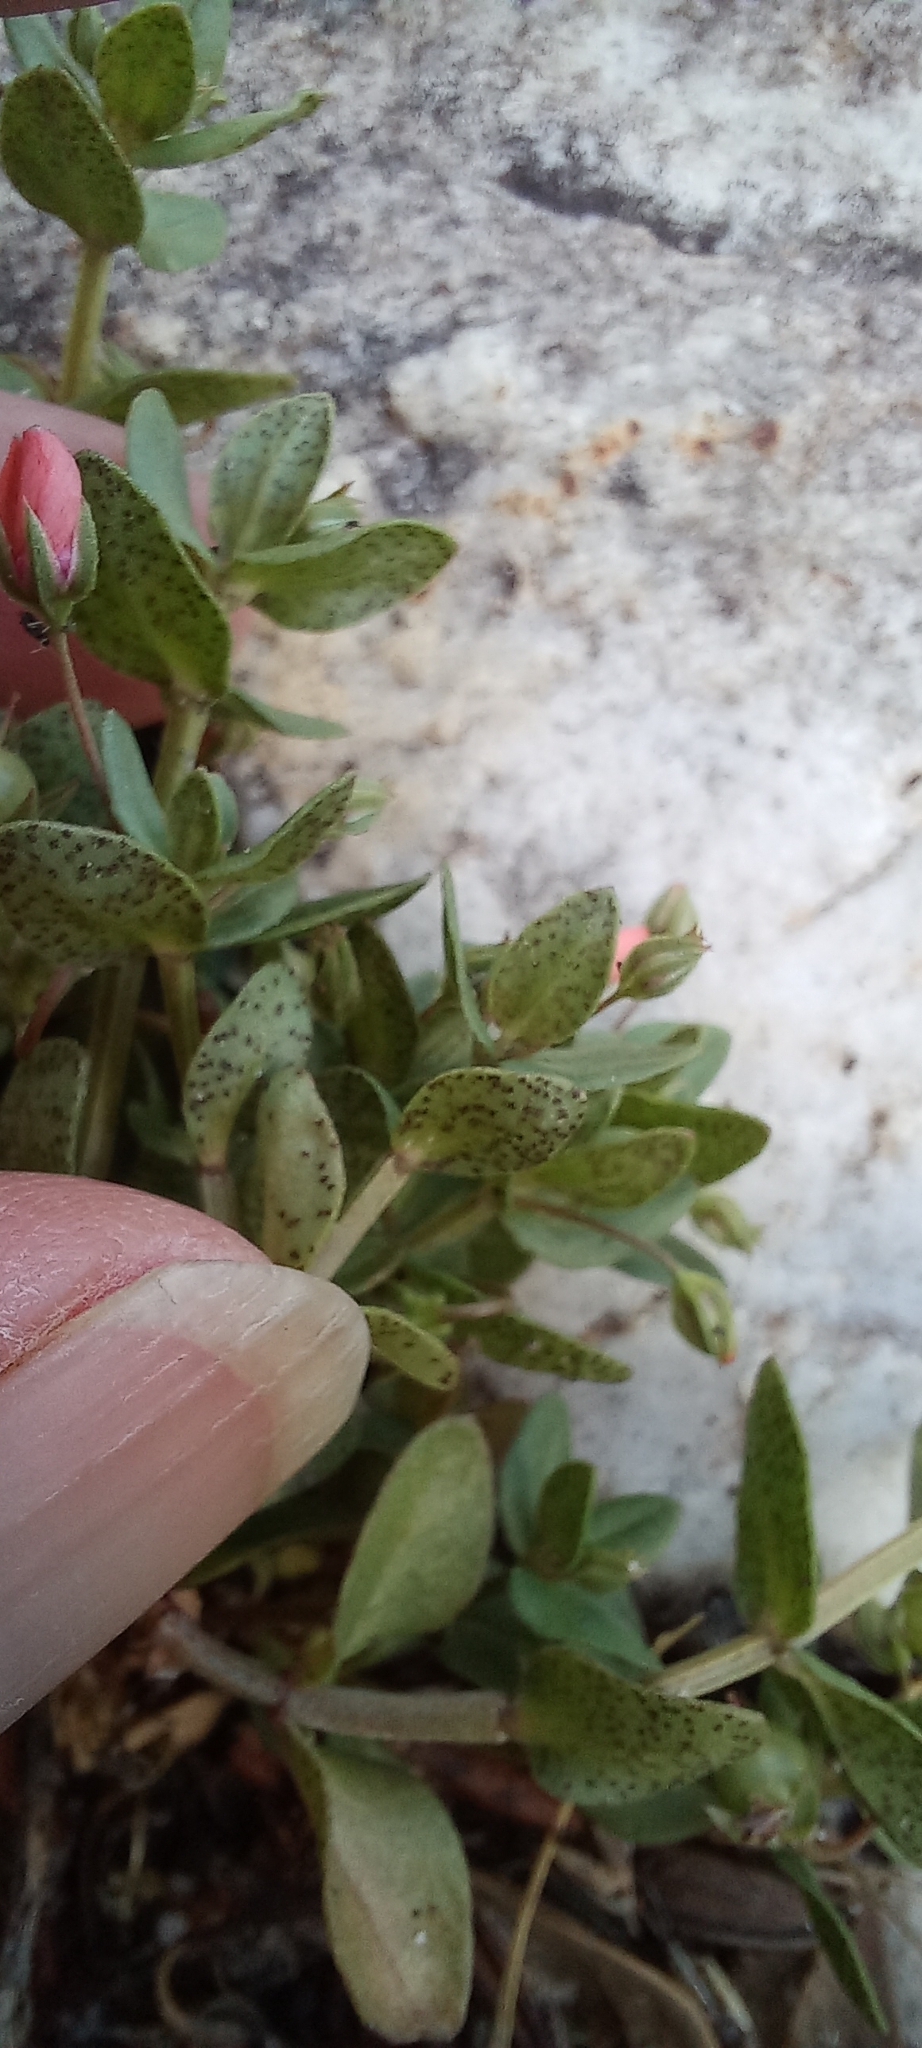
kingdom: Plantae
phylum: Tracheophyta
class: Magnoliopsida
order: Ericales
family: Primulaceae
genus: Lysimachia
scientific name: Lysimachia arvensis
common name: Scarlet pimpernel
